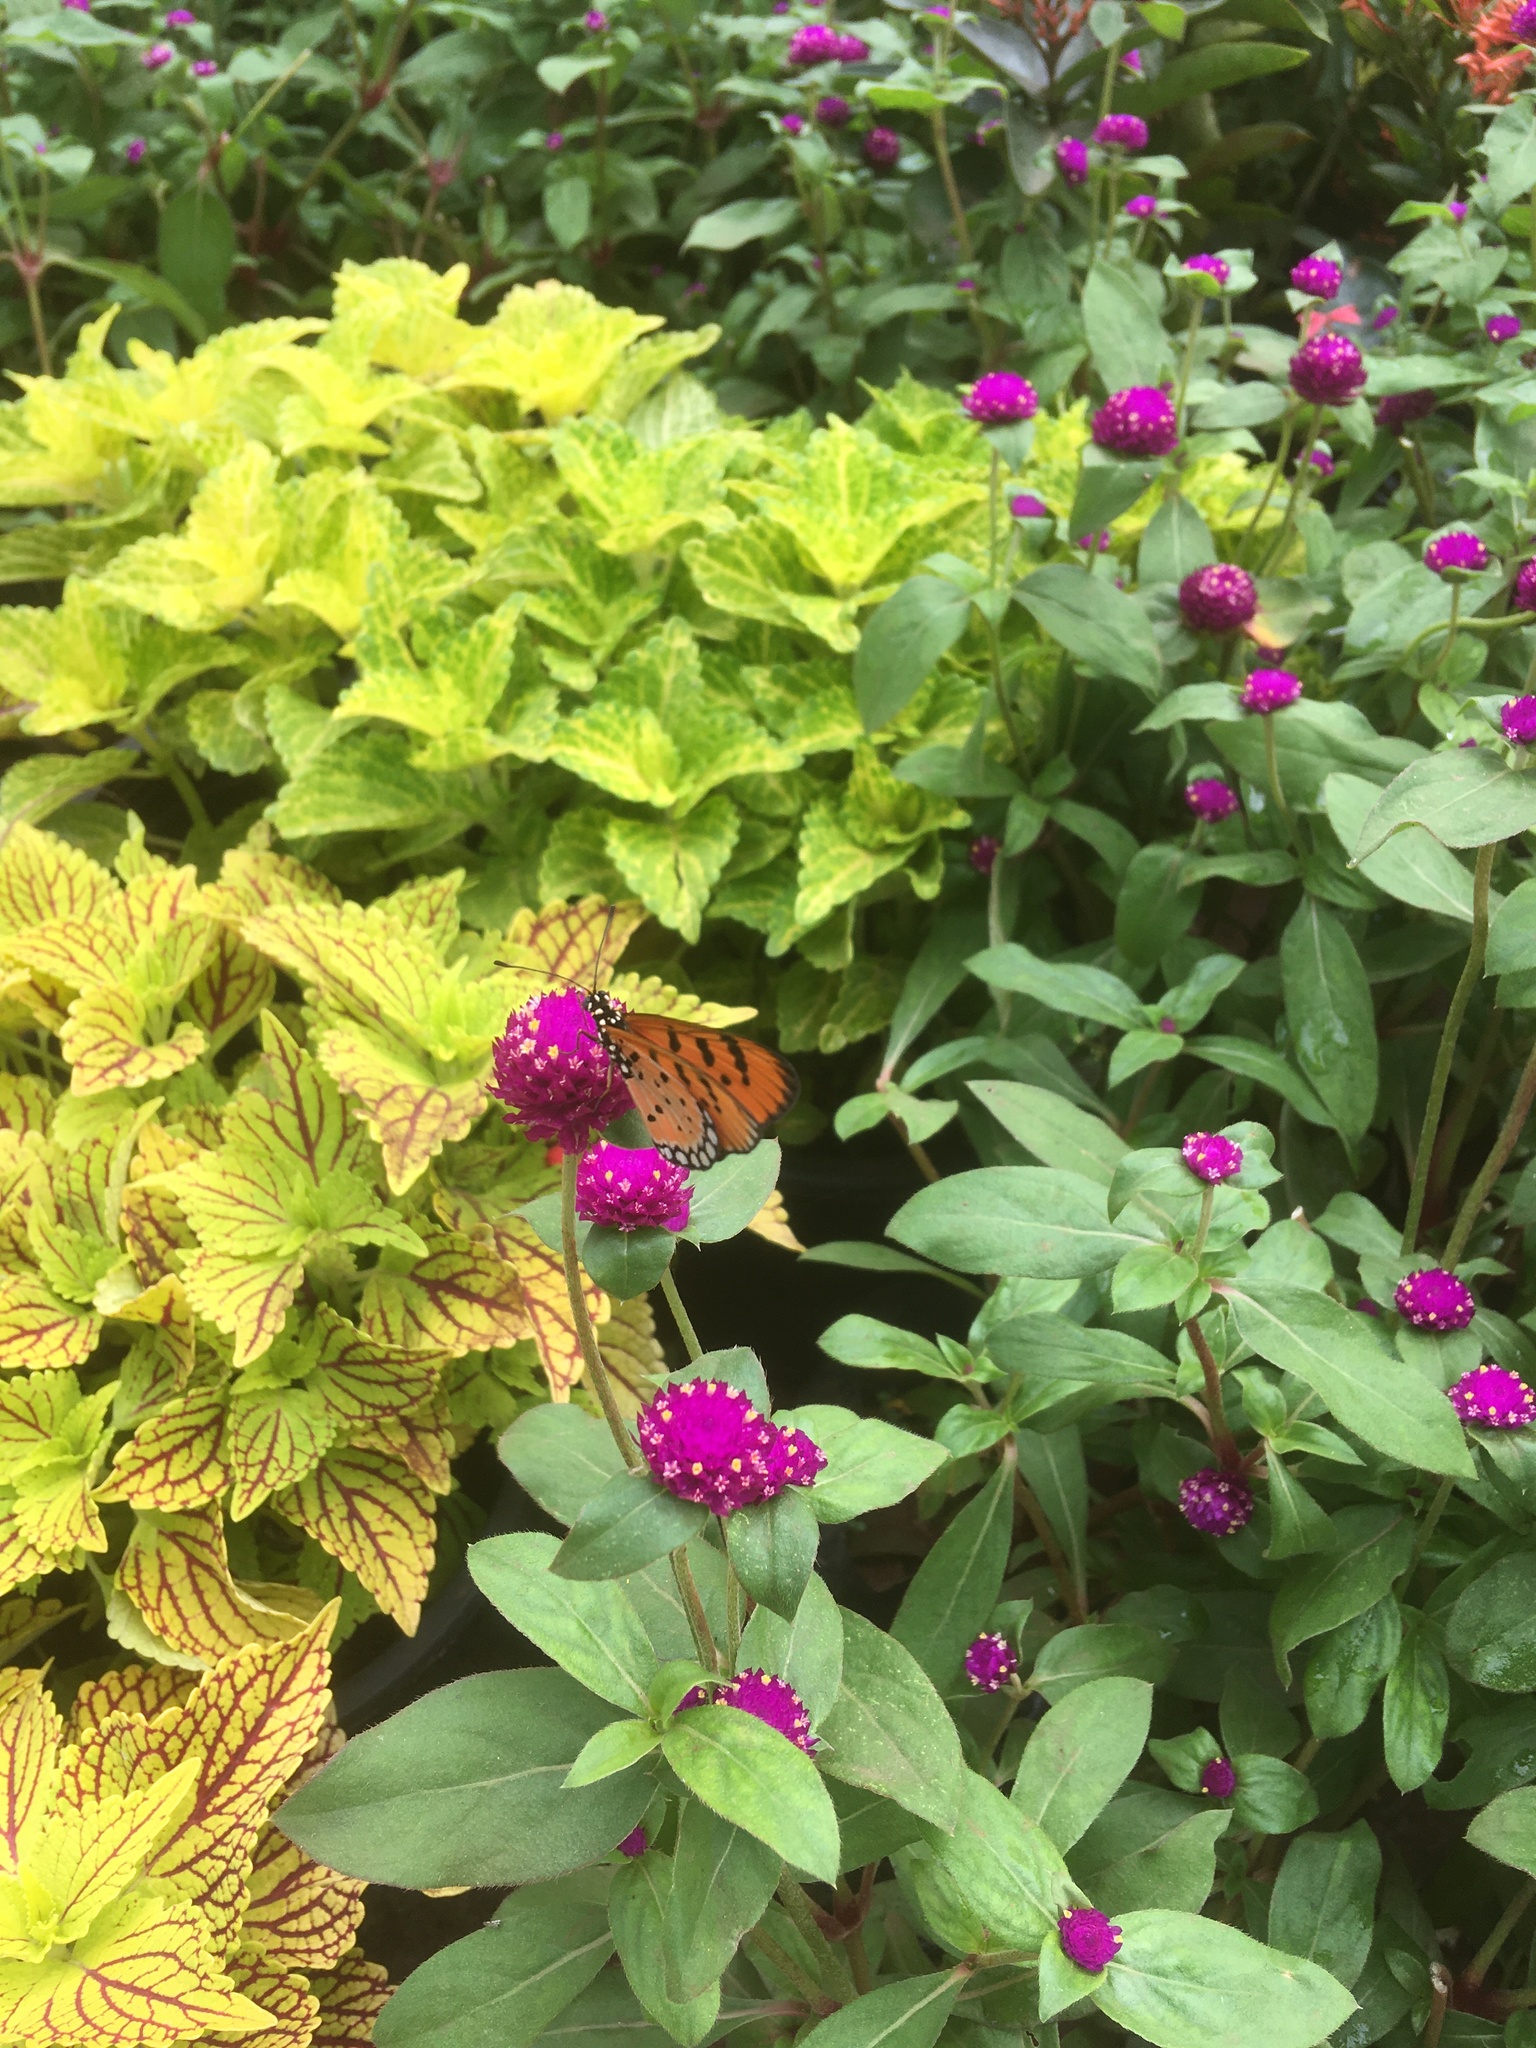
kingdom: Animalia
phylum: Arthropoda
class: Insecta
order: Lepidoptera
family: Nymphalidae
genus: Acraea
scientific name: Acraea terpsicore
